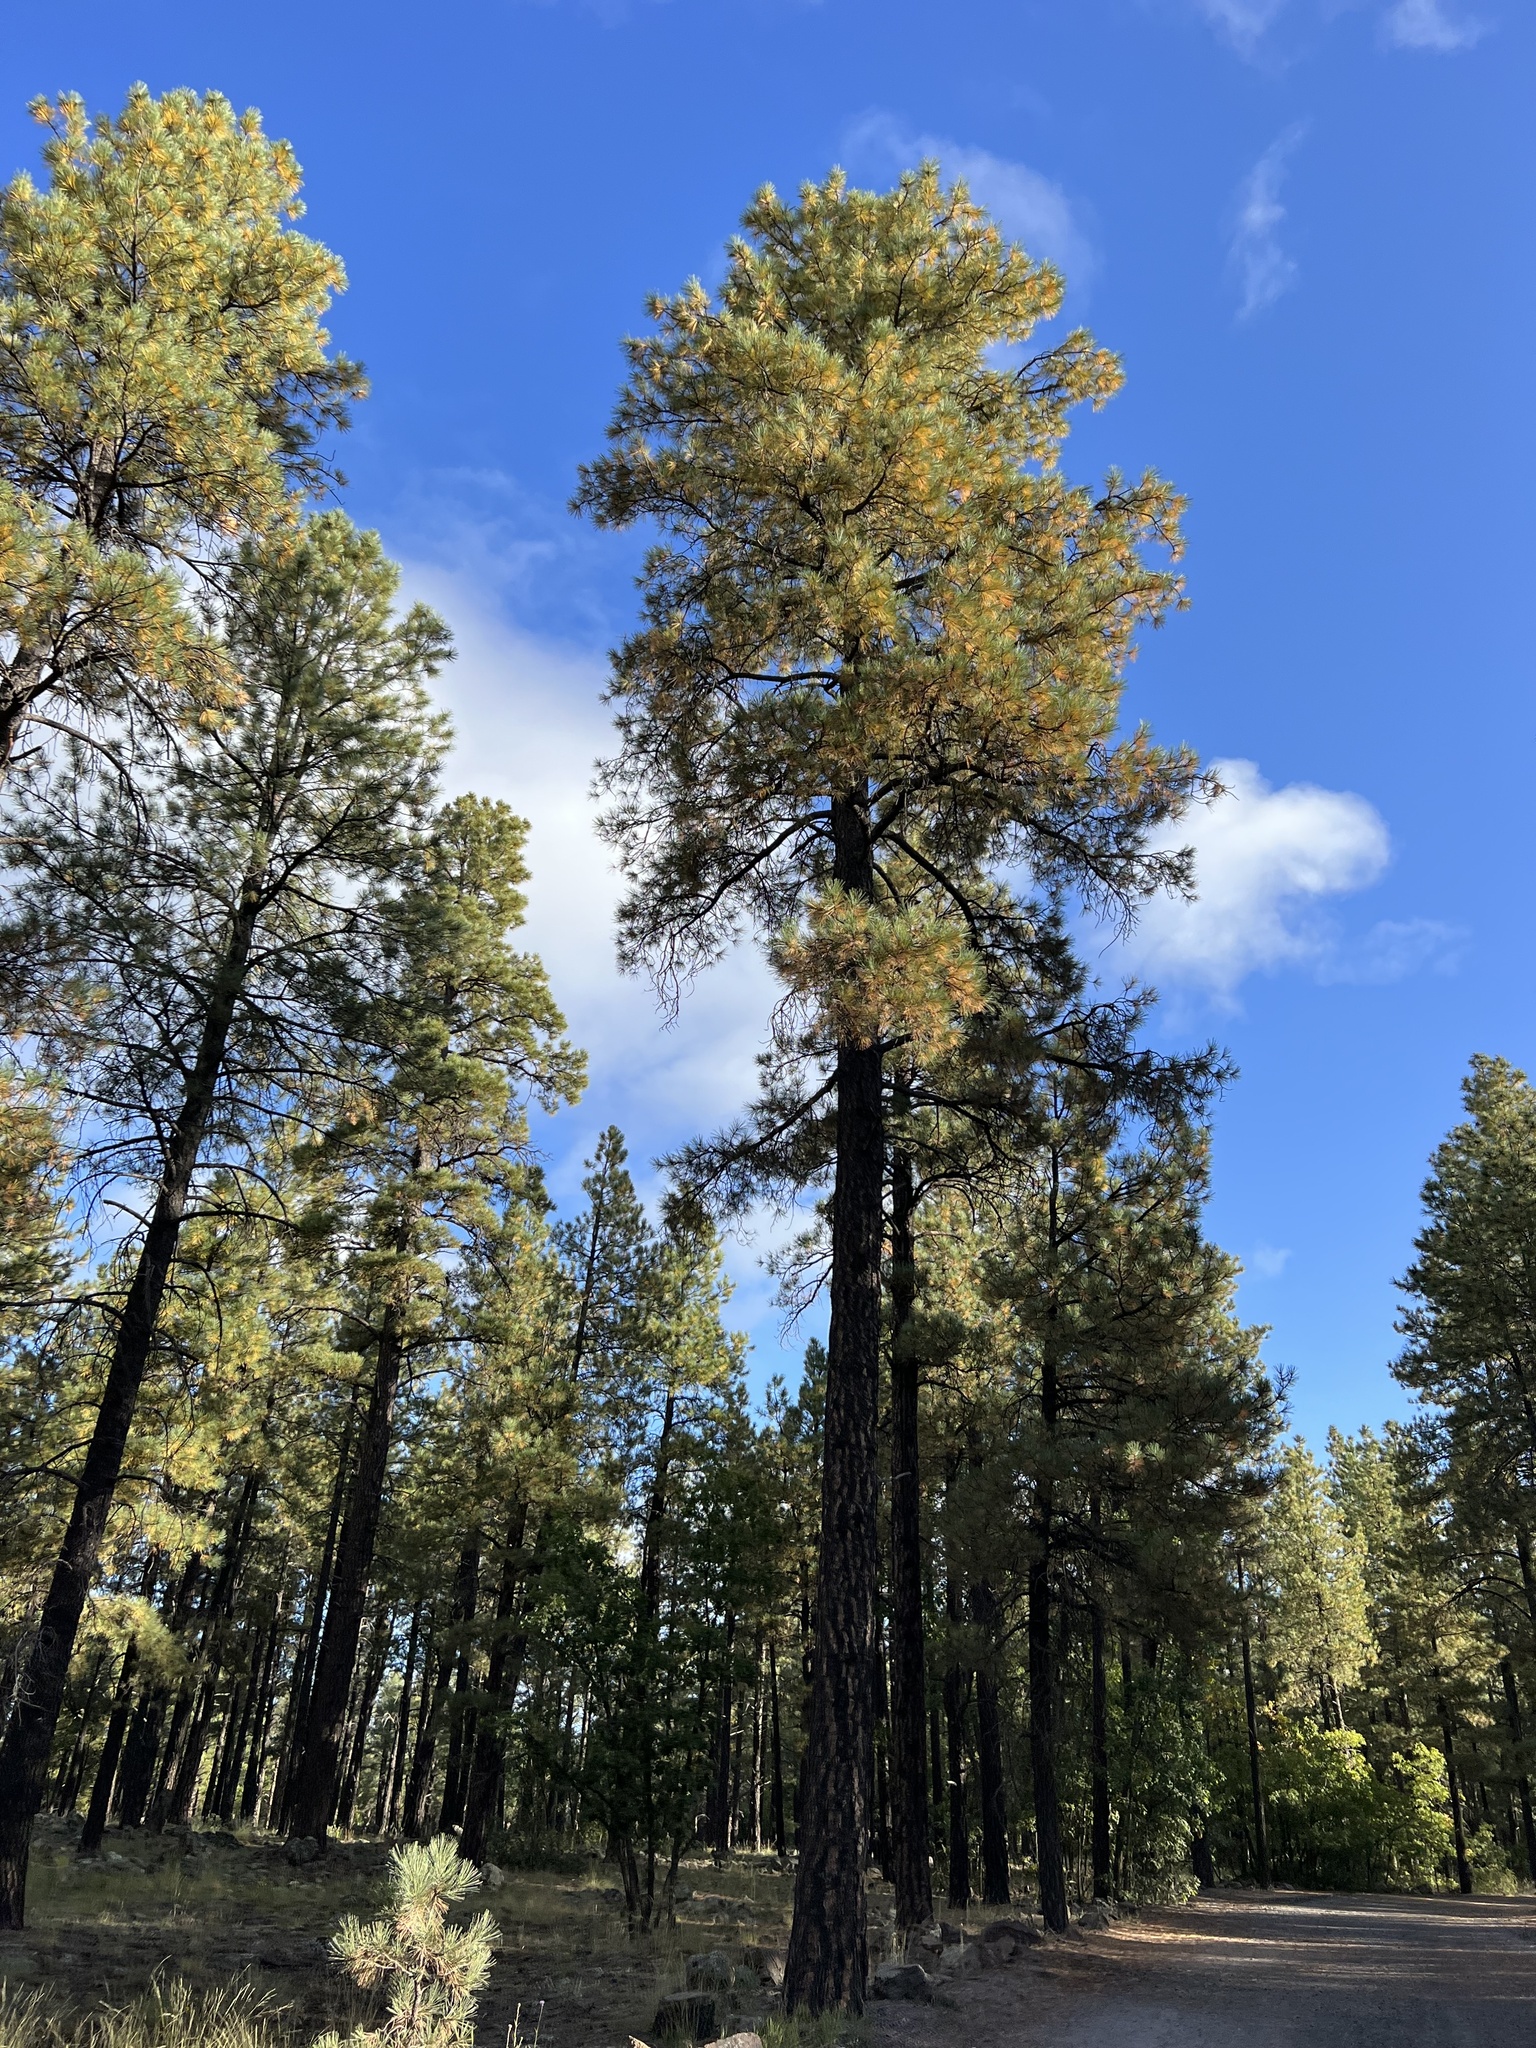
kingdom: Plantae
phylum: Tracheophyta
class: Pinopsida
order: Pinales
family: Pinaceae
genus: Pinus
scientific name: Pinus ponderosa
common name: Western yellow-pine
